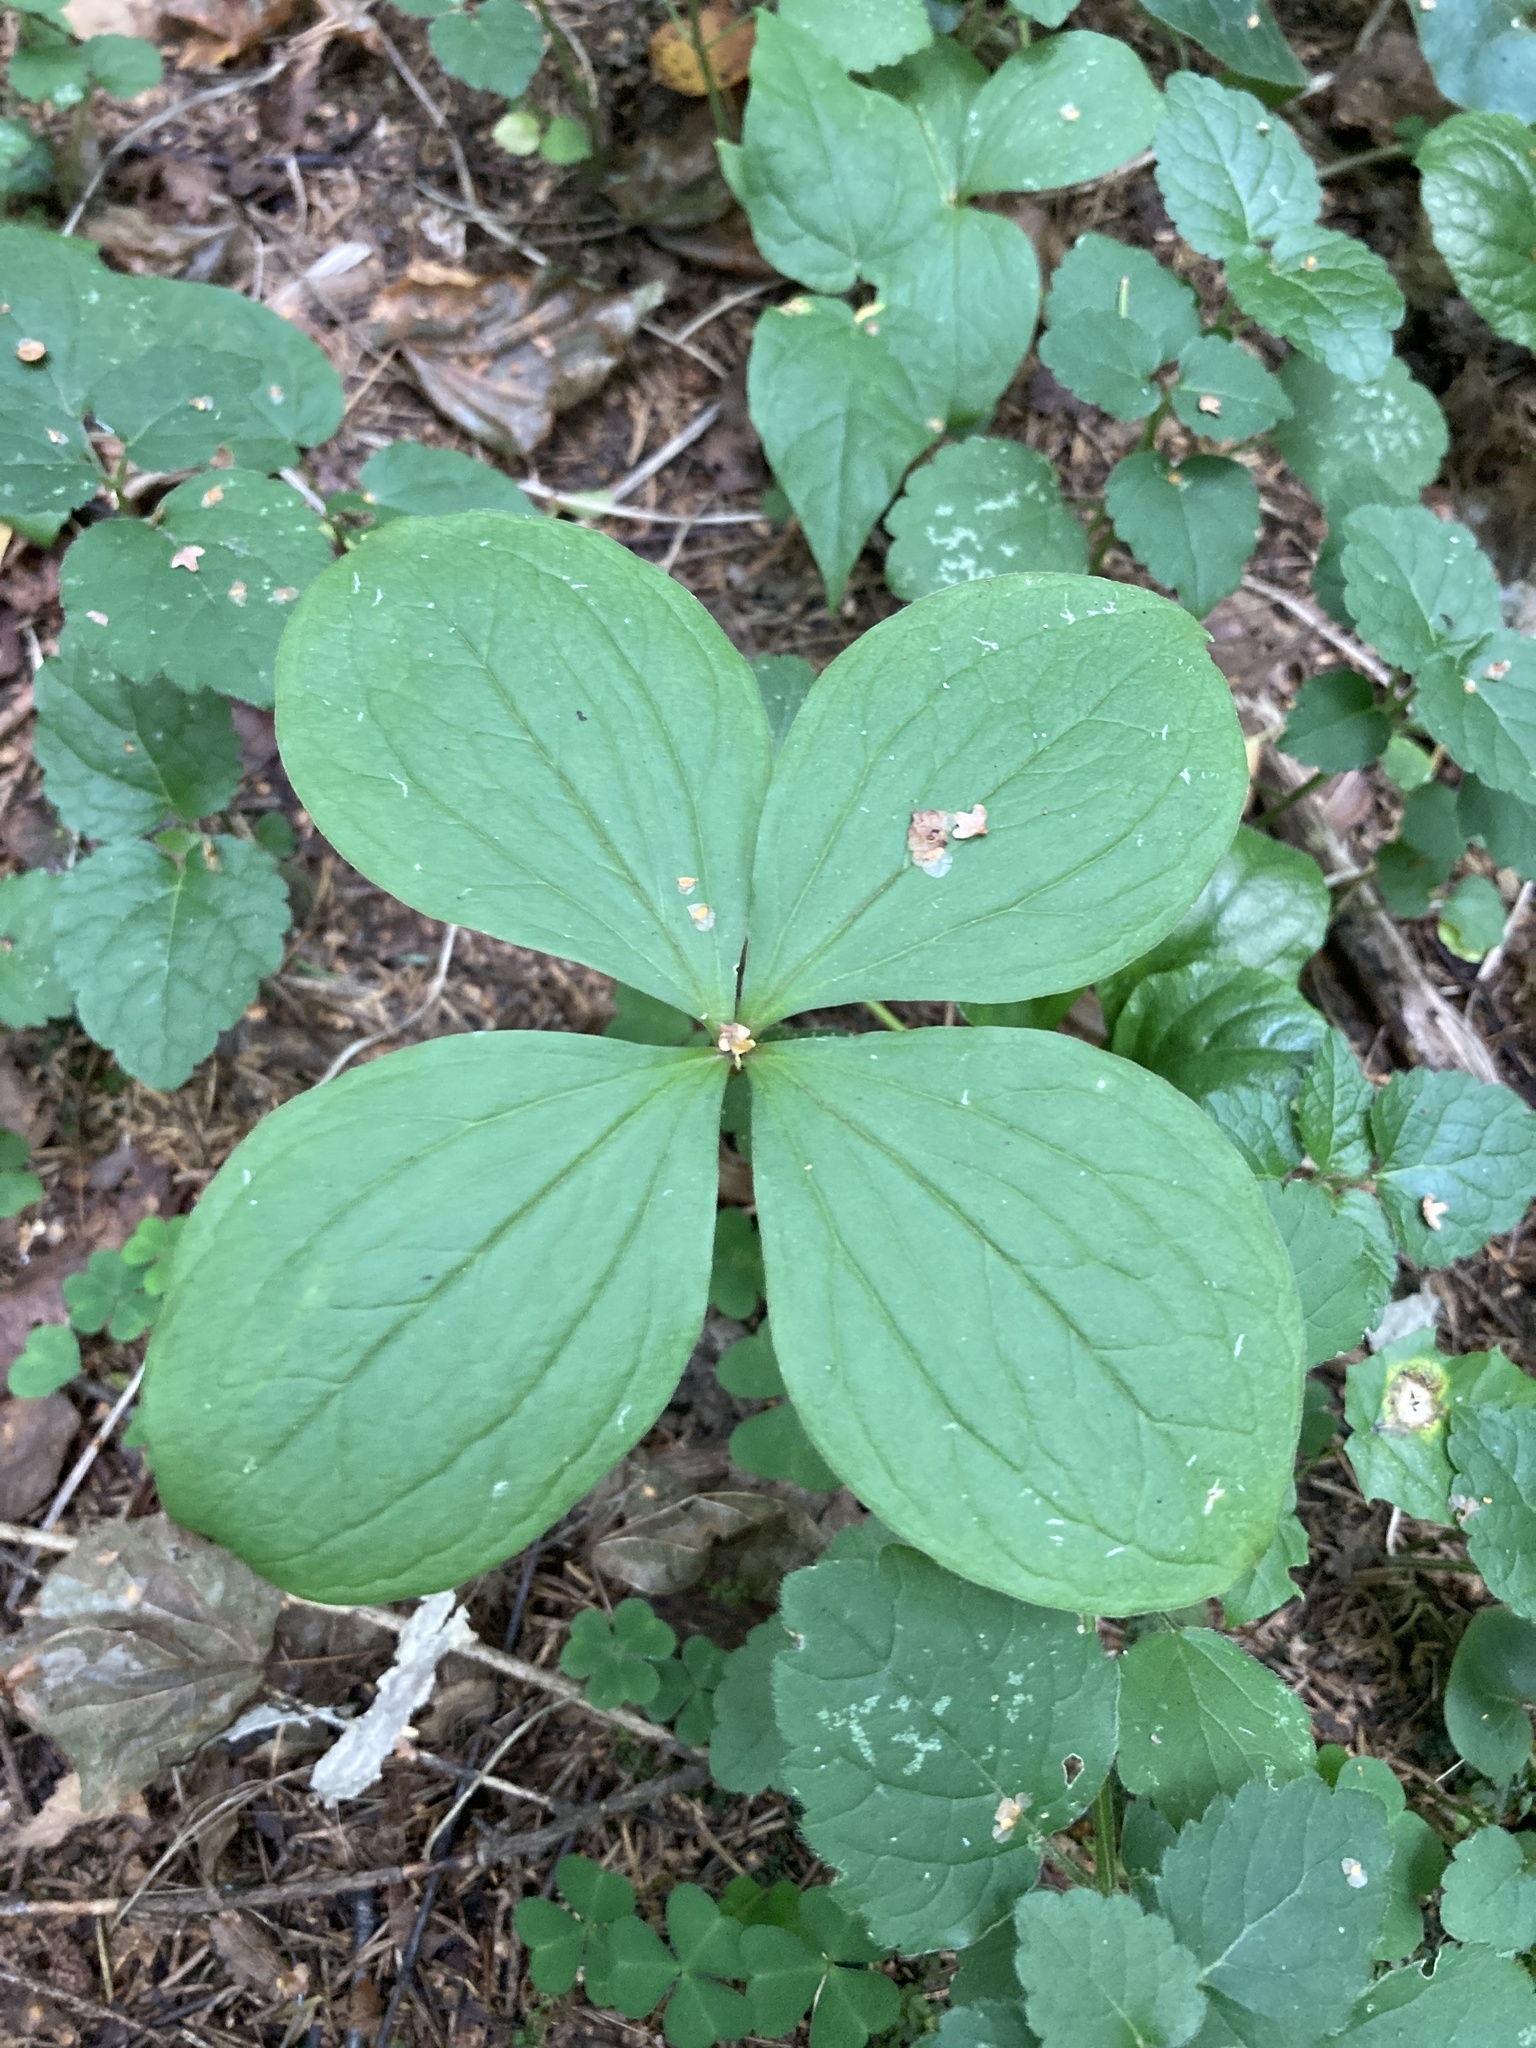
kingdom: Plantae
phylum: Tracheophyta
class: Liliopsida
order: Liliales
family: Melanthiaceae
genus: Paris
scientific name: Paris quadrifolia
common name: Herb-paris
